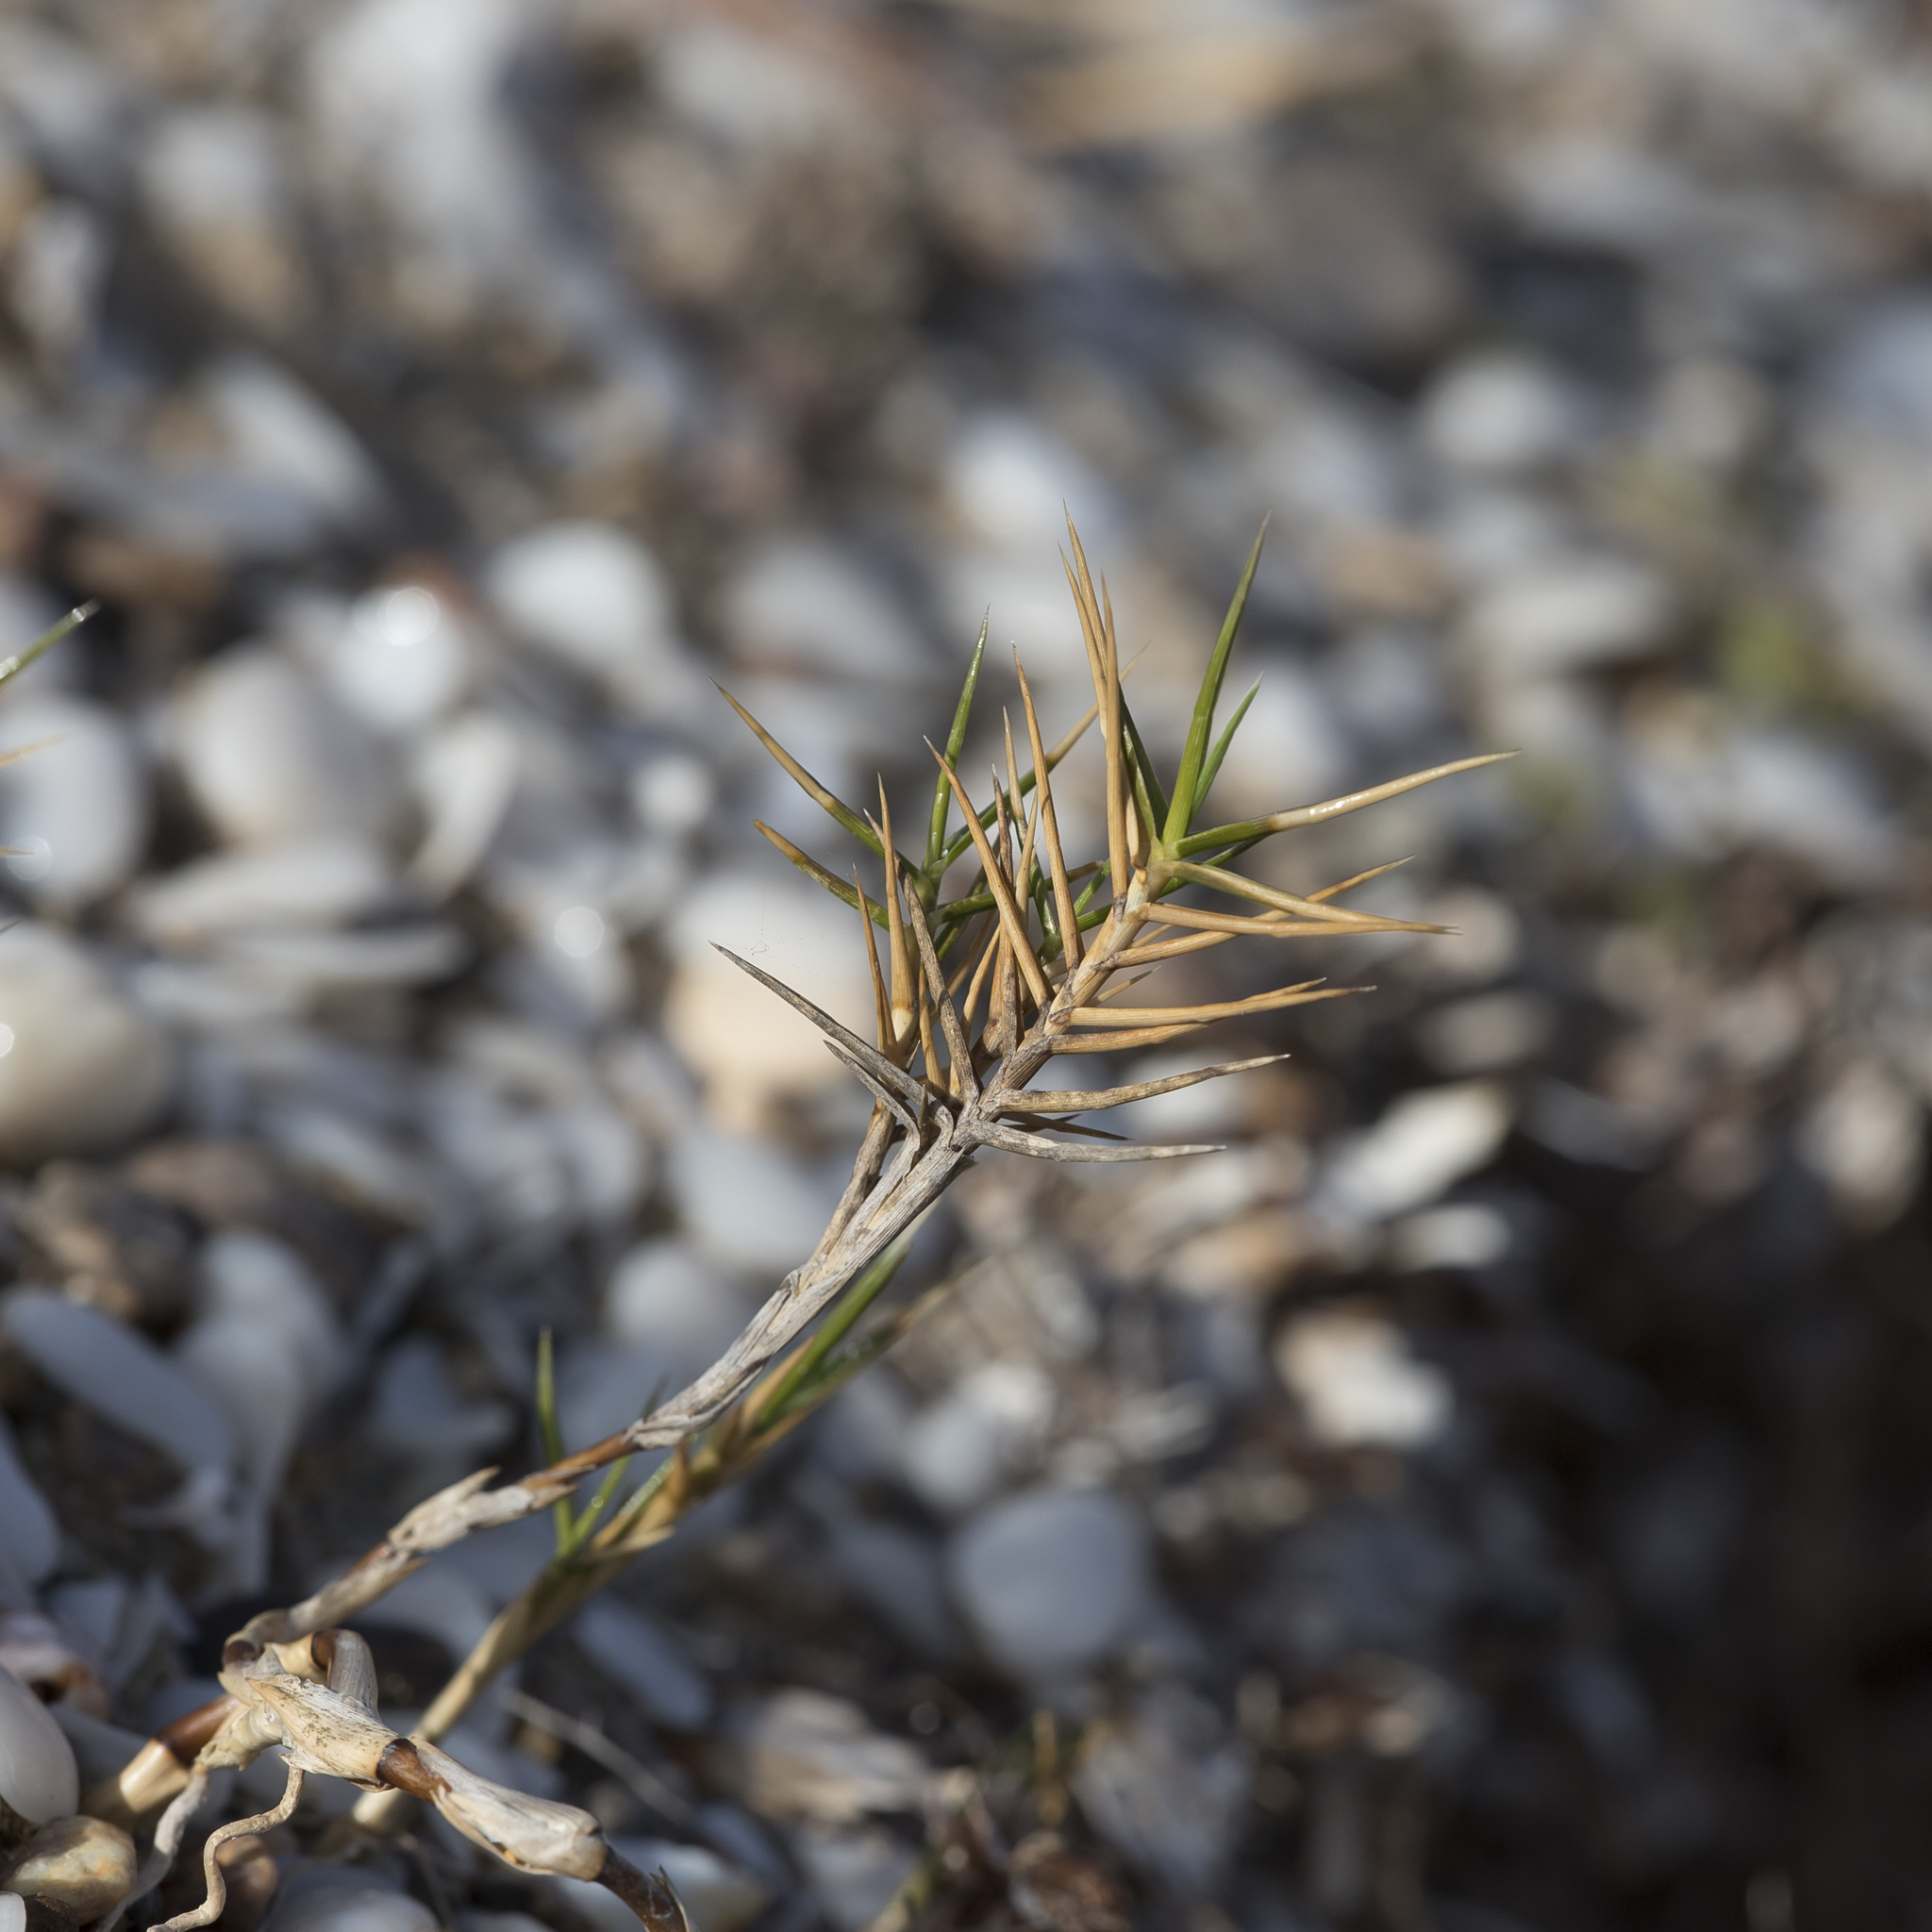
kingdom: Plantae
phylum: Tracheophyta
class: Liliopsida
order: Poales
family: Poaceae
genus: Distichlis
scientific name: Distichlis distichophylla
